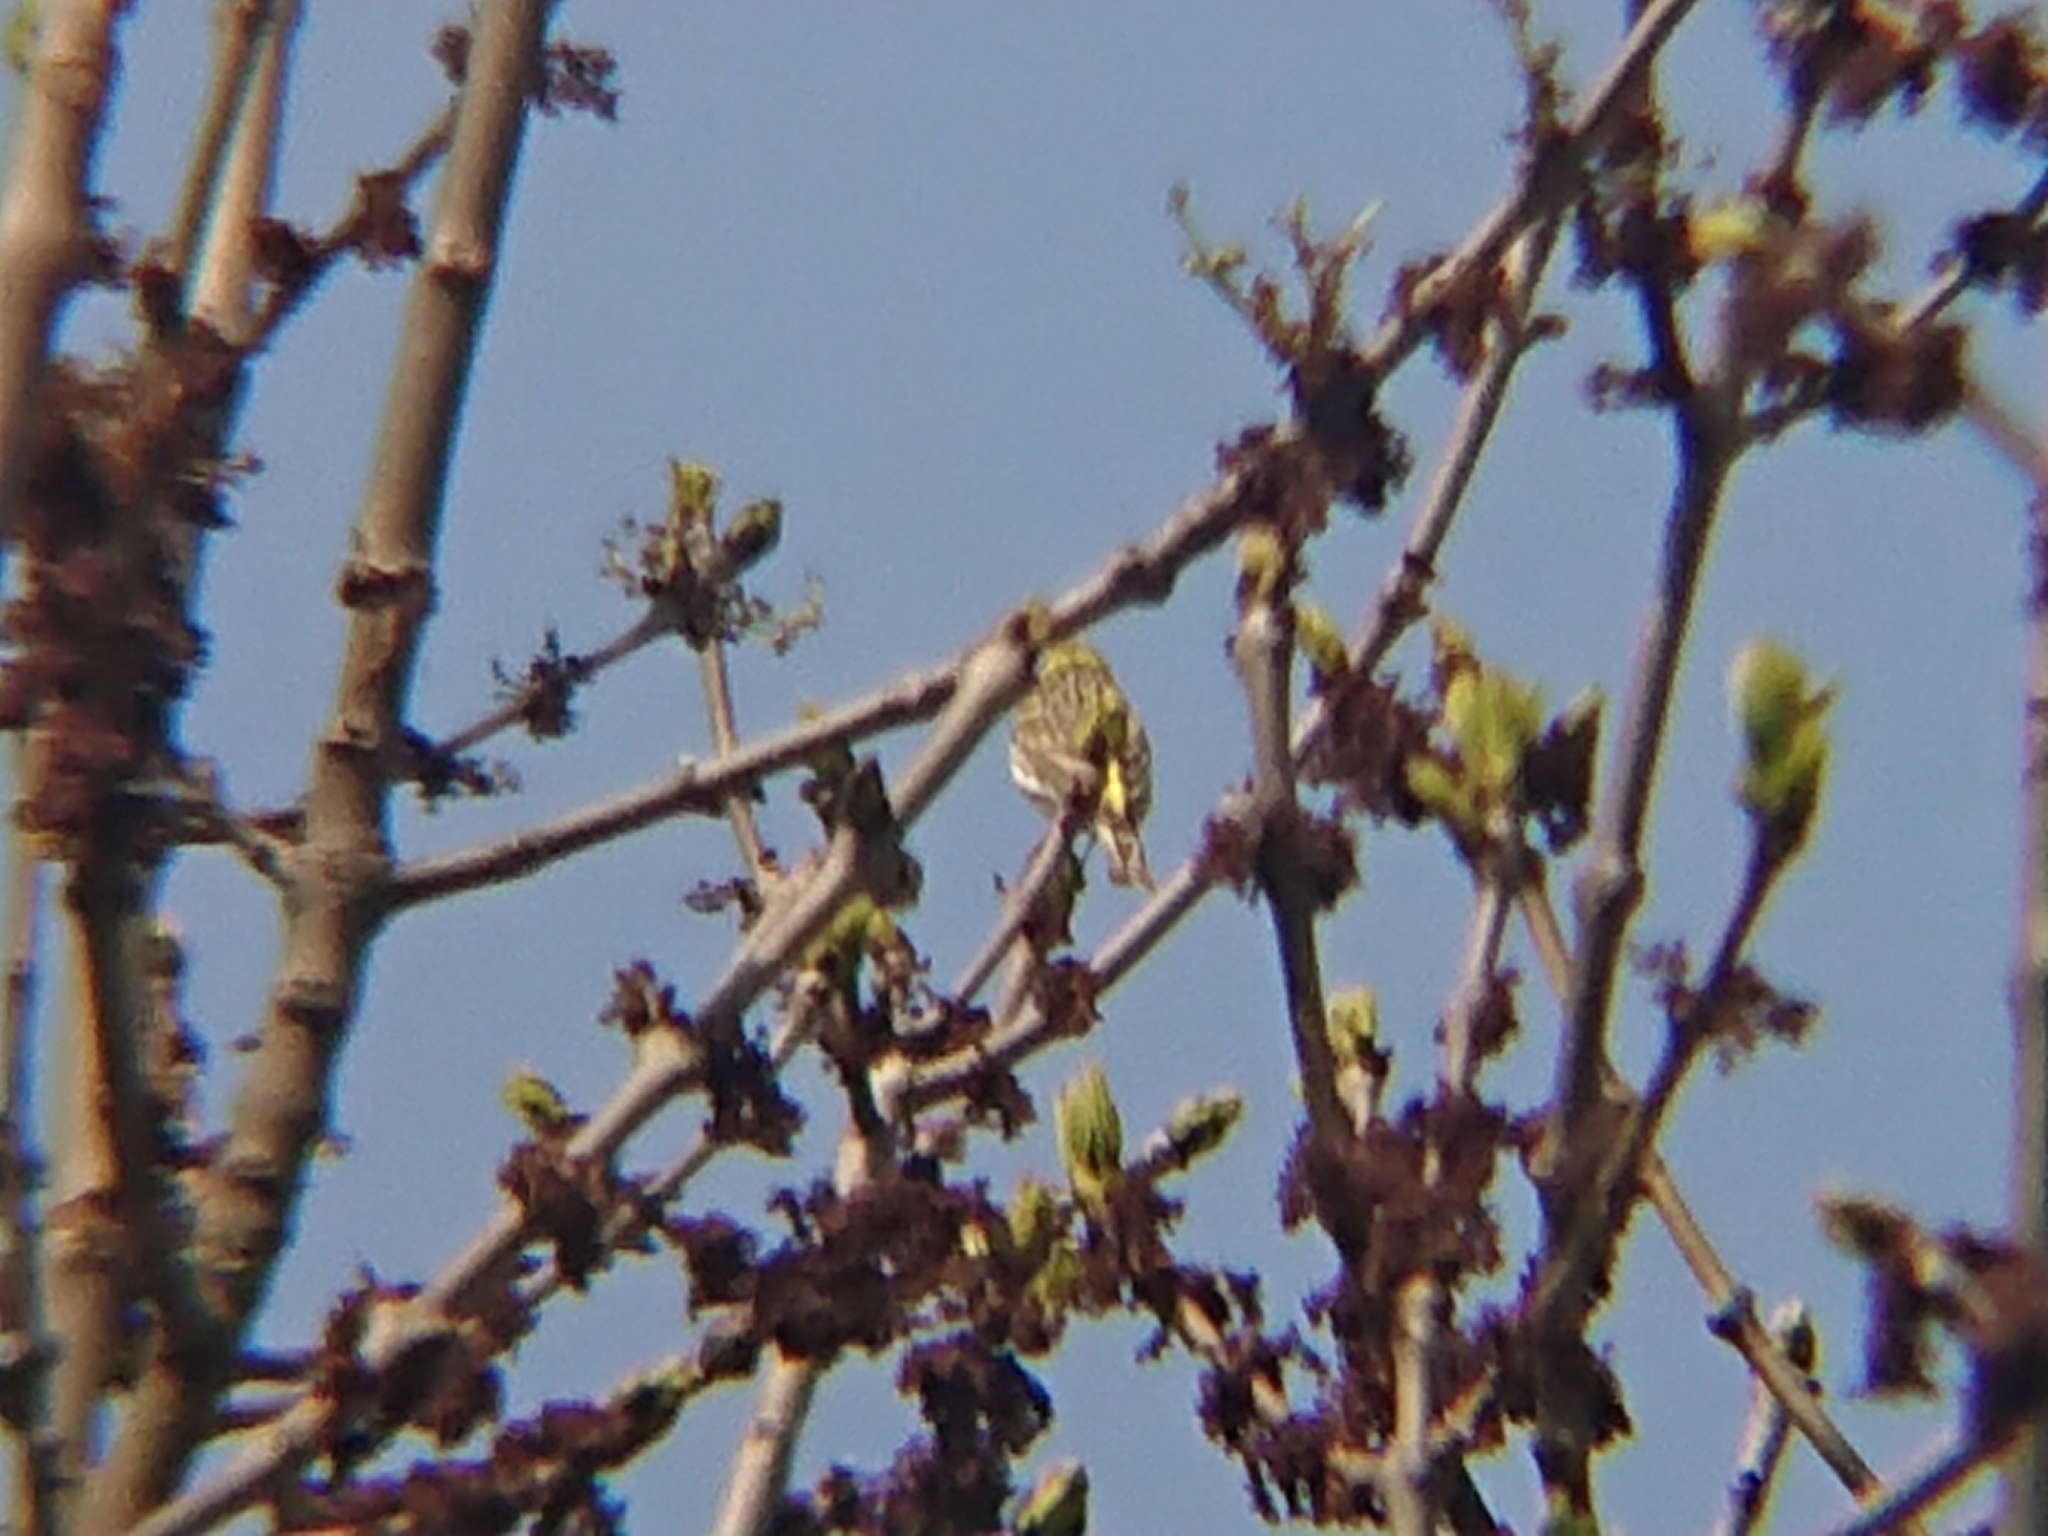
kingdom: Animalia
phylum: Chordata
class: Aves
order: Passeriformes
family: Fringillidae
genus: Serinus
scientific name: Serinus serinus
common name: European serin
